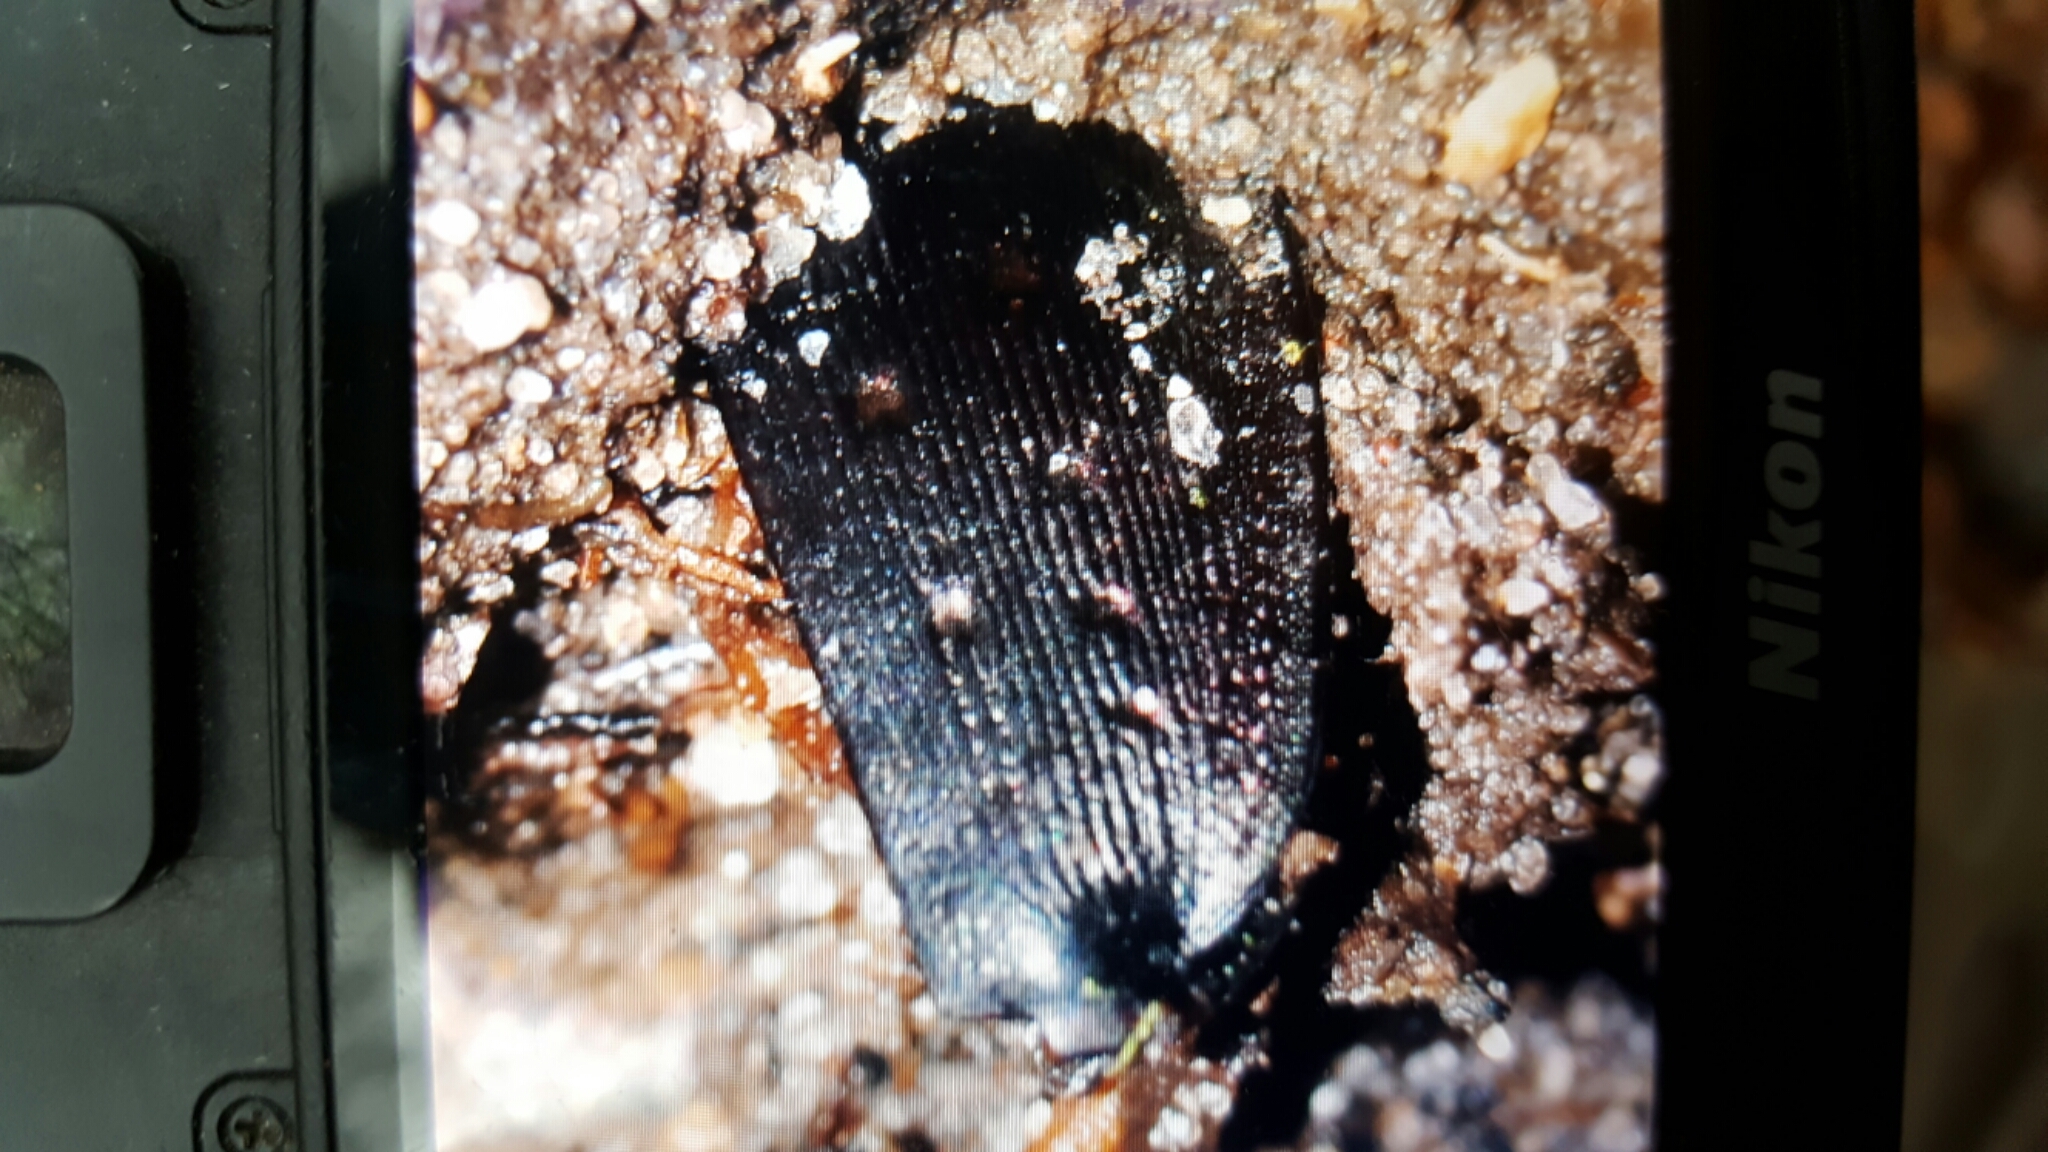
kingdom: Animalia
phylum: Arthropoda
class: Insecta
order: Coleoptera
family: Carabidae
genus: Carabus
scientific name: Carabus hortensis
